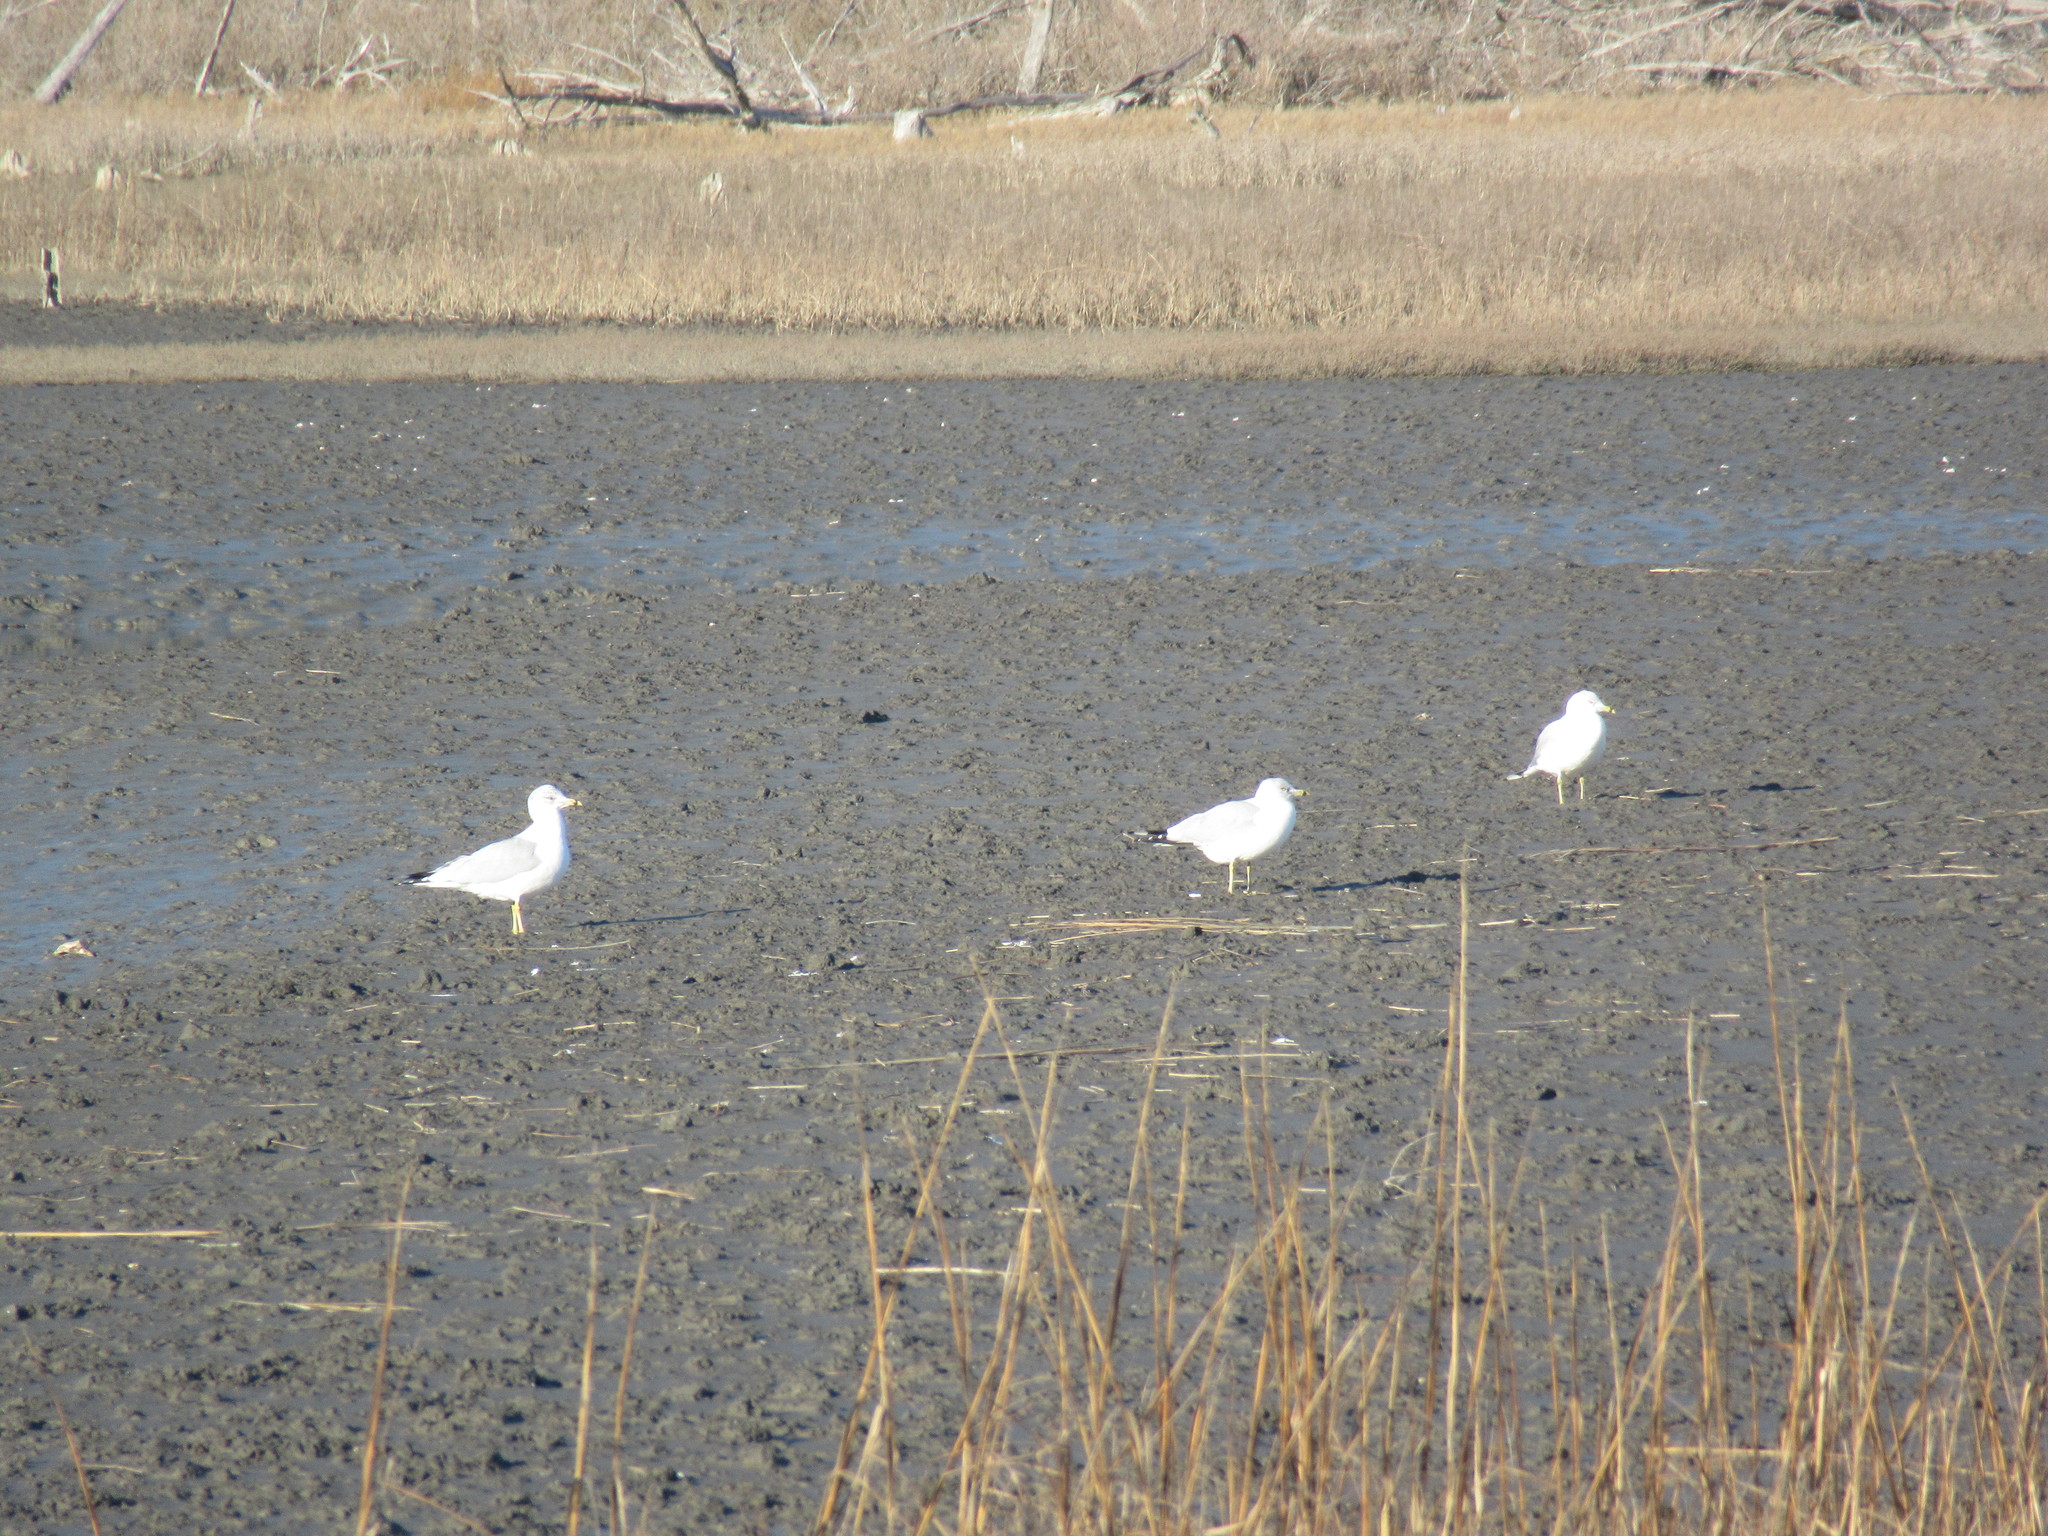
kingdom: Animalia
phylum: Chordata
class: Aves
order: Charadriiformes
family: Laridae
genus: Larus
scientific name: Larus delawarensis
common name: Ring-billed gull
